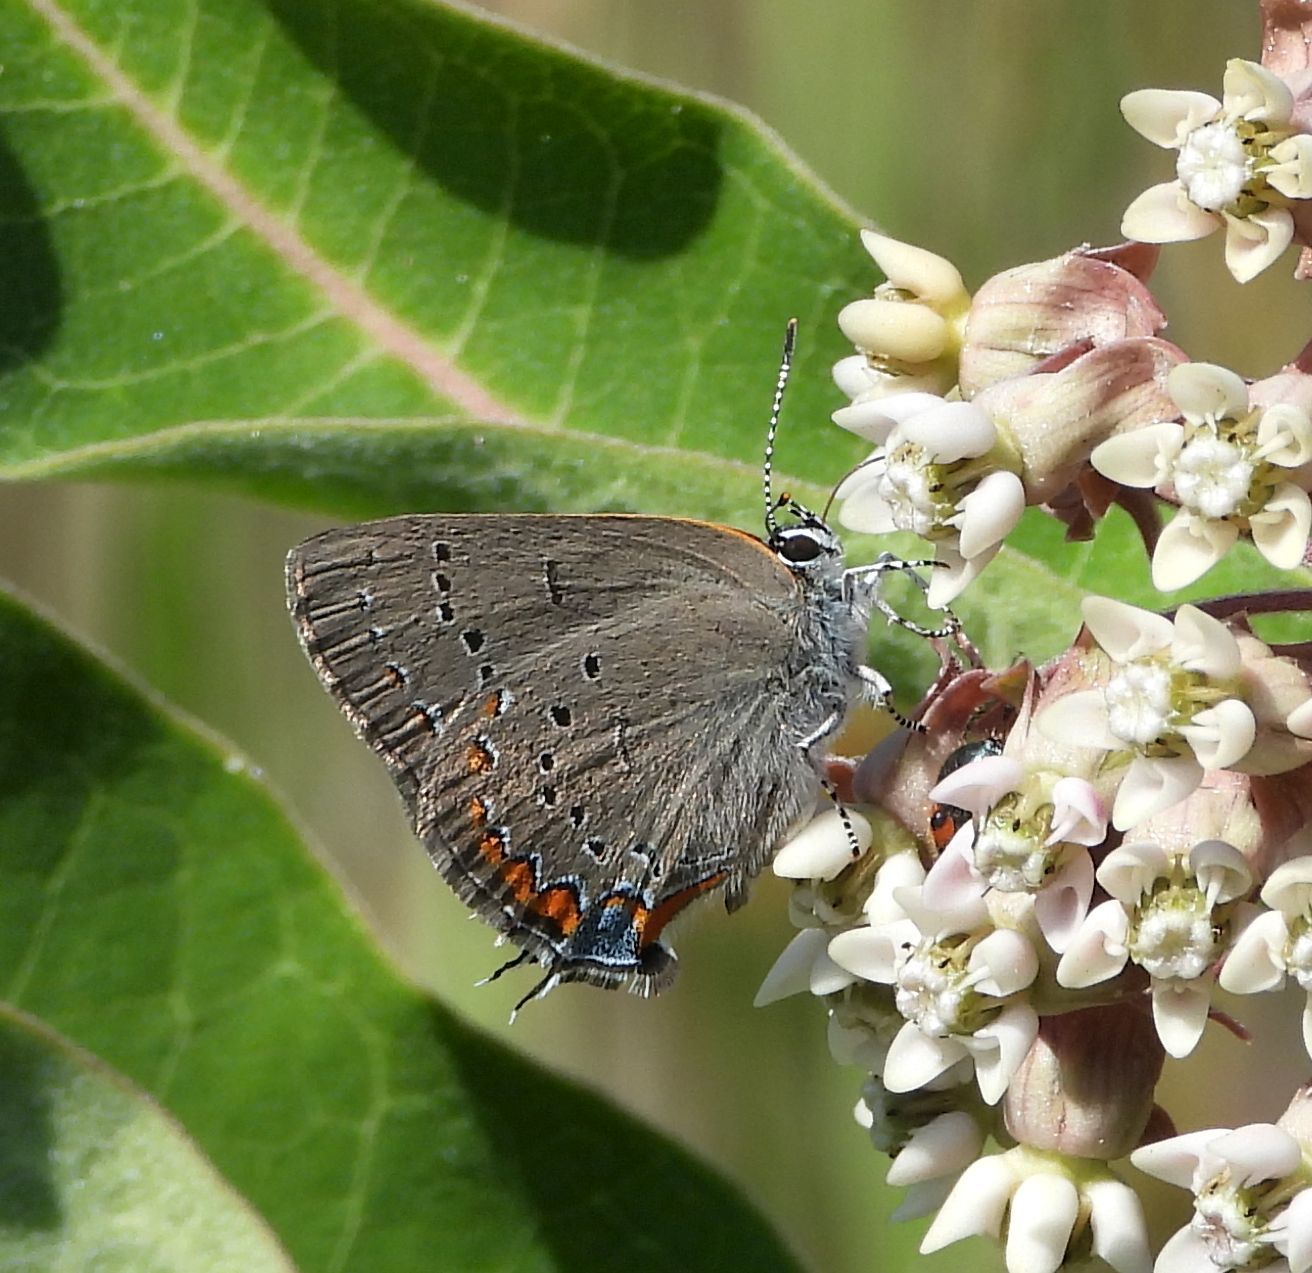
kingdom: Animalia
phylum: Arthropoda
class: Insecta
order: Lepidoptera
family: Lycaenidae
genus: Strymon
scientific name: Strymon acadica
